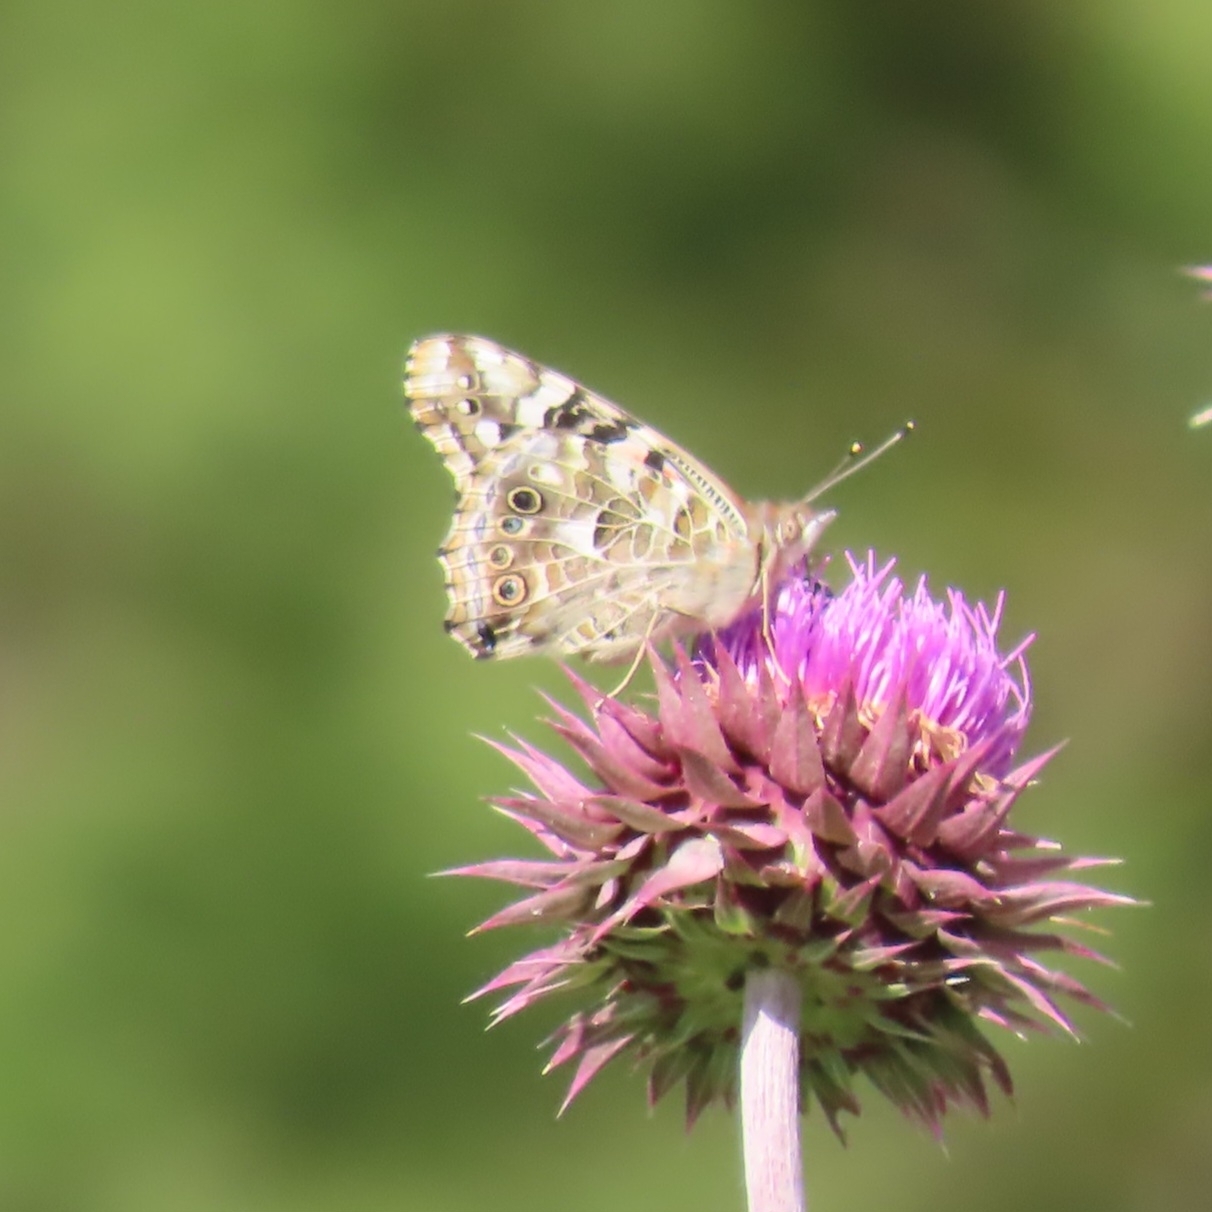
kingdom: Animalia
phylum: Arthropoda
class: Insecta
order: Lepidoptera
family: Nymphalidae
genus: Vanessa
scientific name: Vanessa cardui
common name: Painted lady
